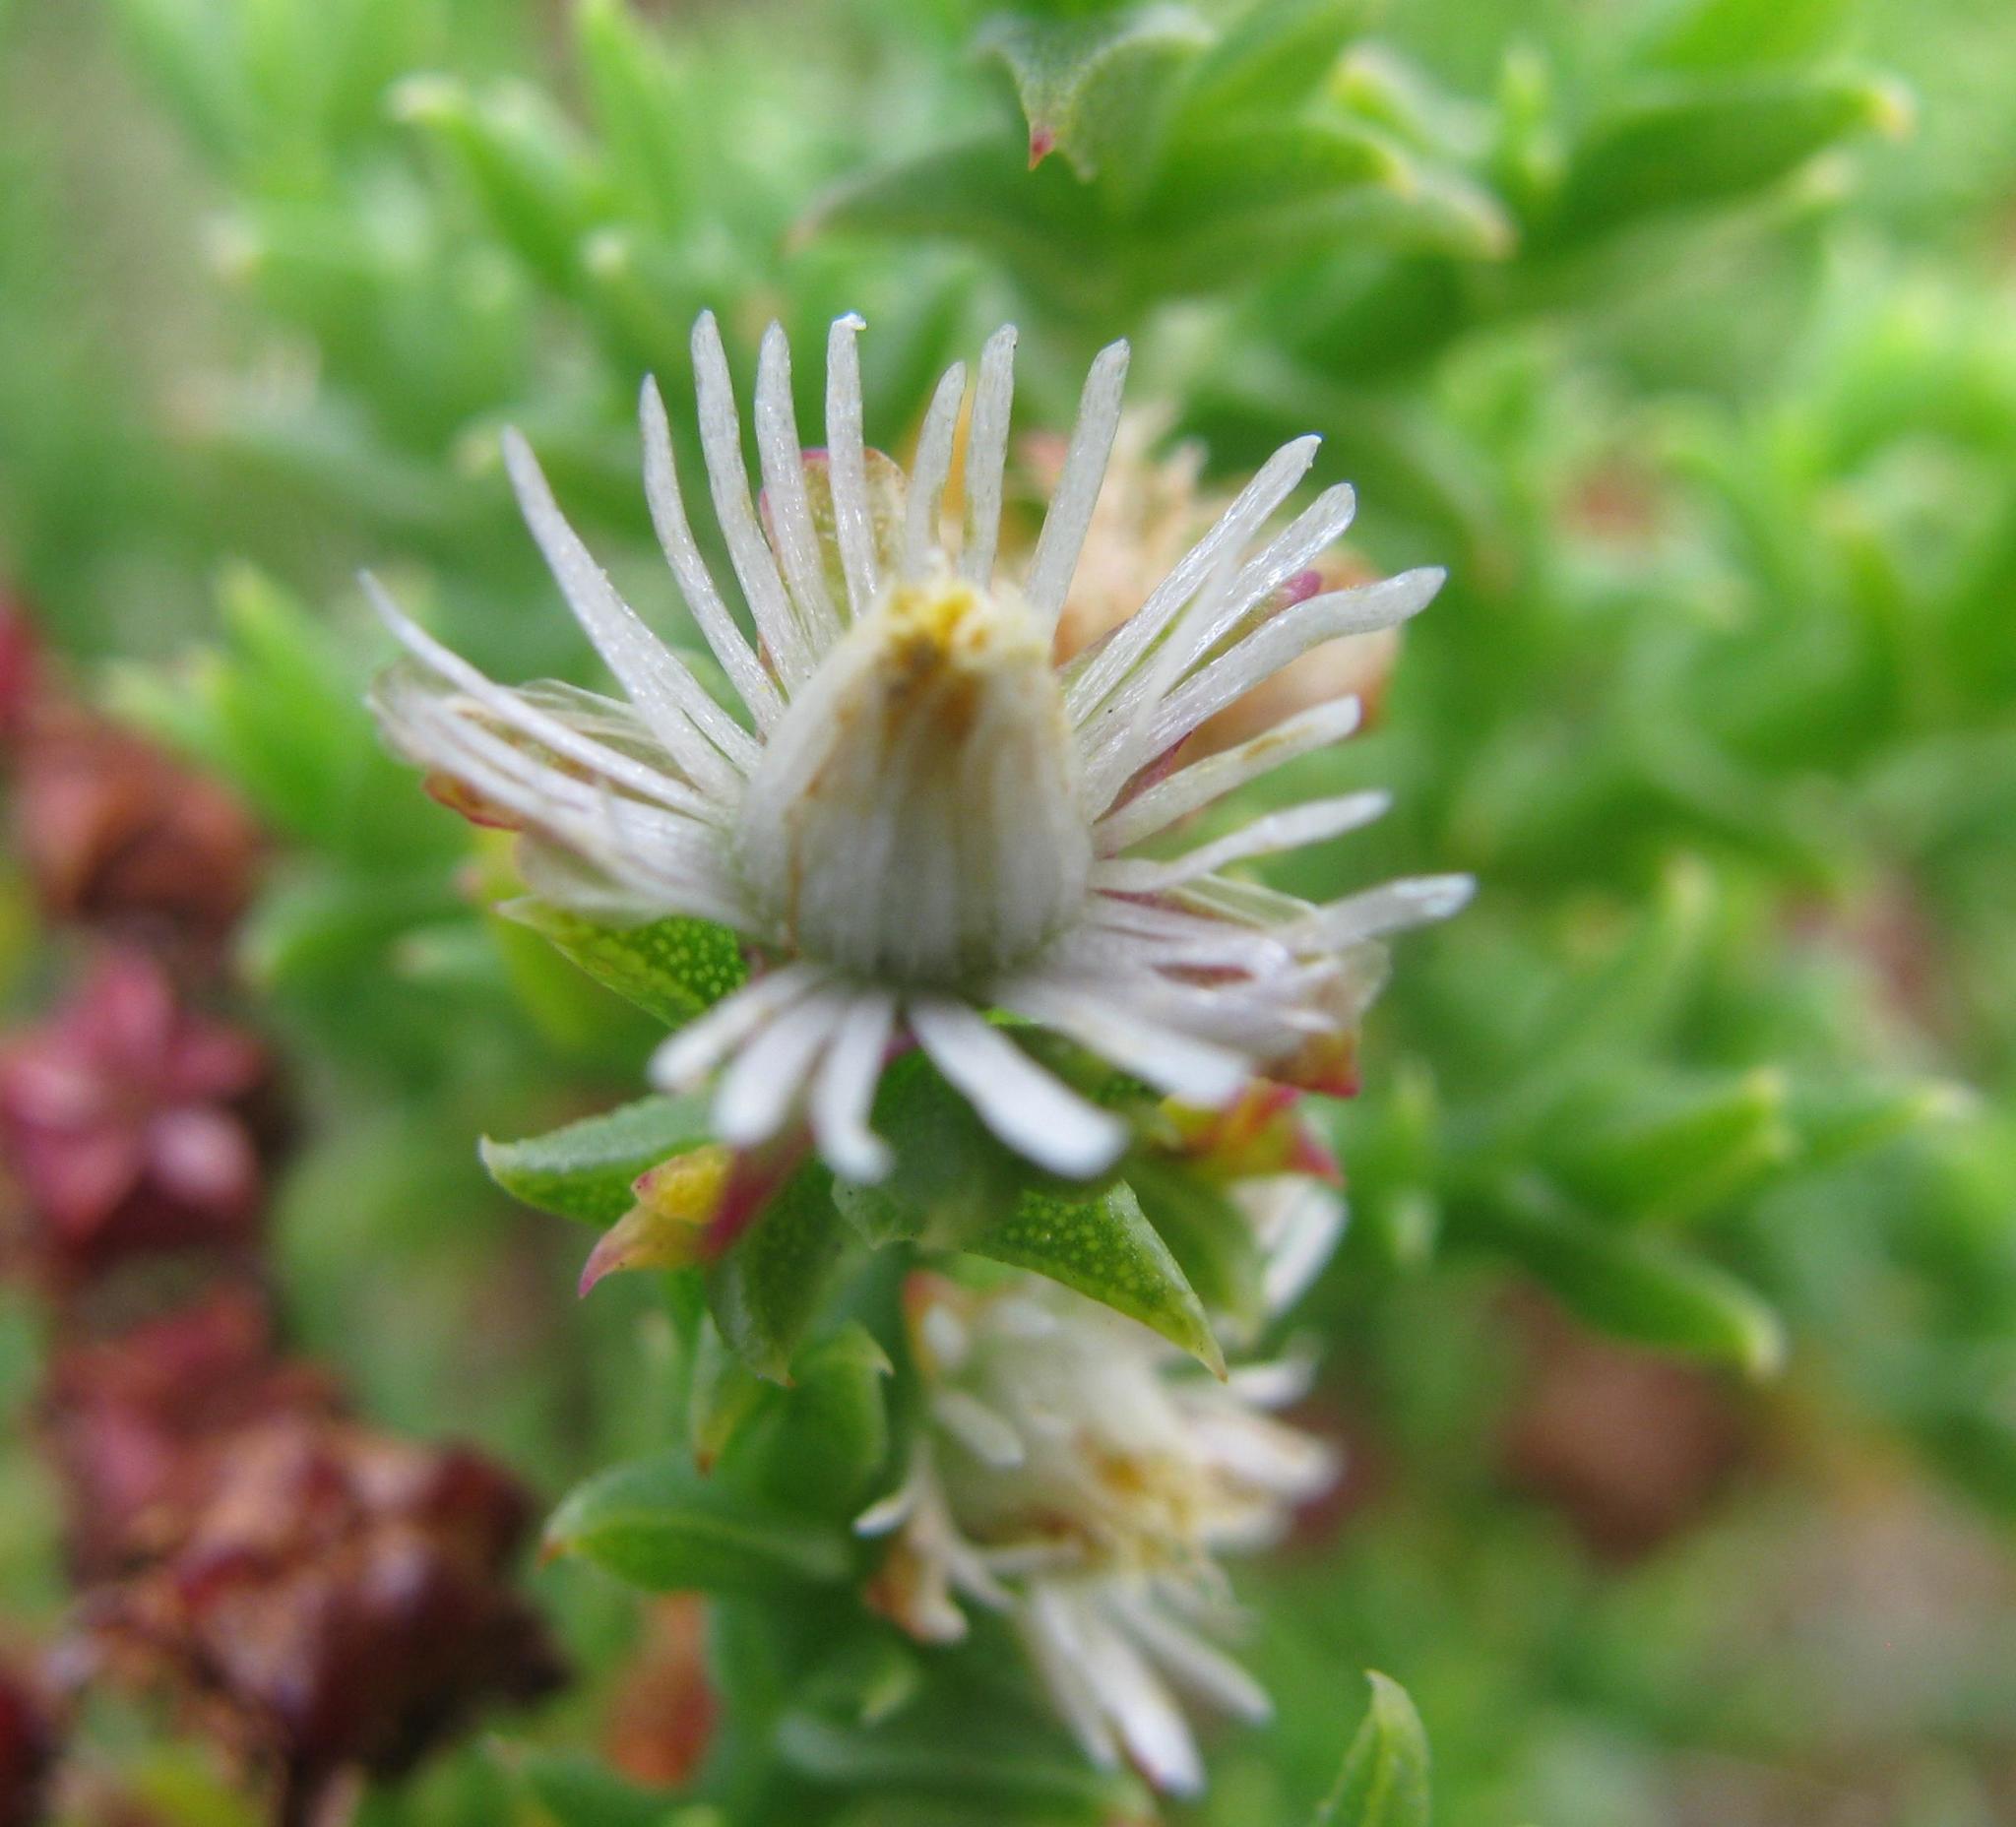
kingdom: Plantae
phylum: Tracheophyta
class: Magnoliopsida
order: Caryophyllales
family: Aizoaceae
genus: Ruschia
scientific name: Ruschia tenella
